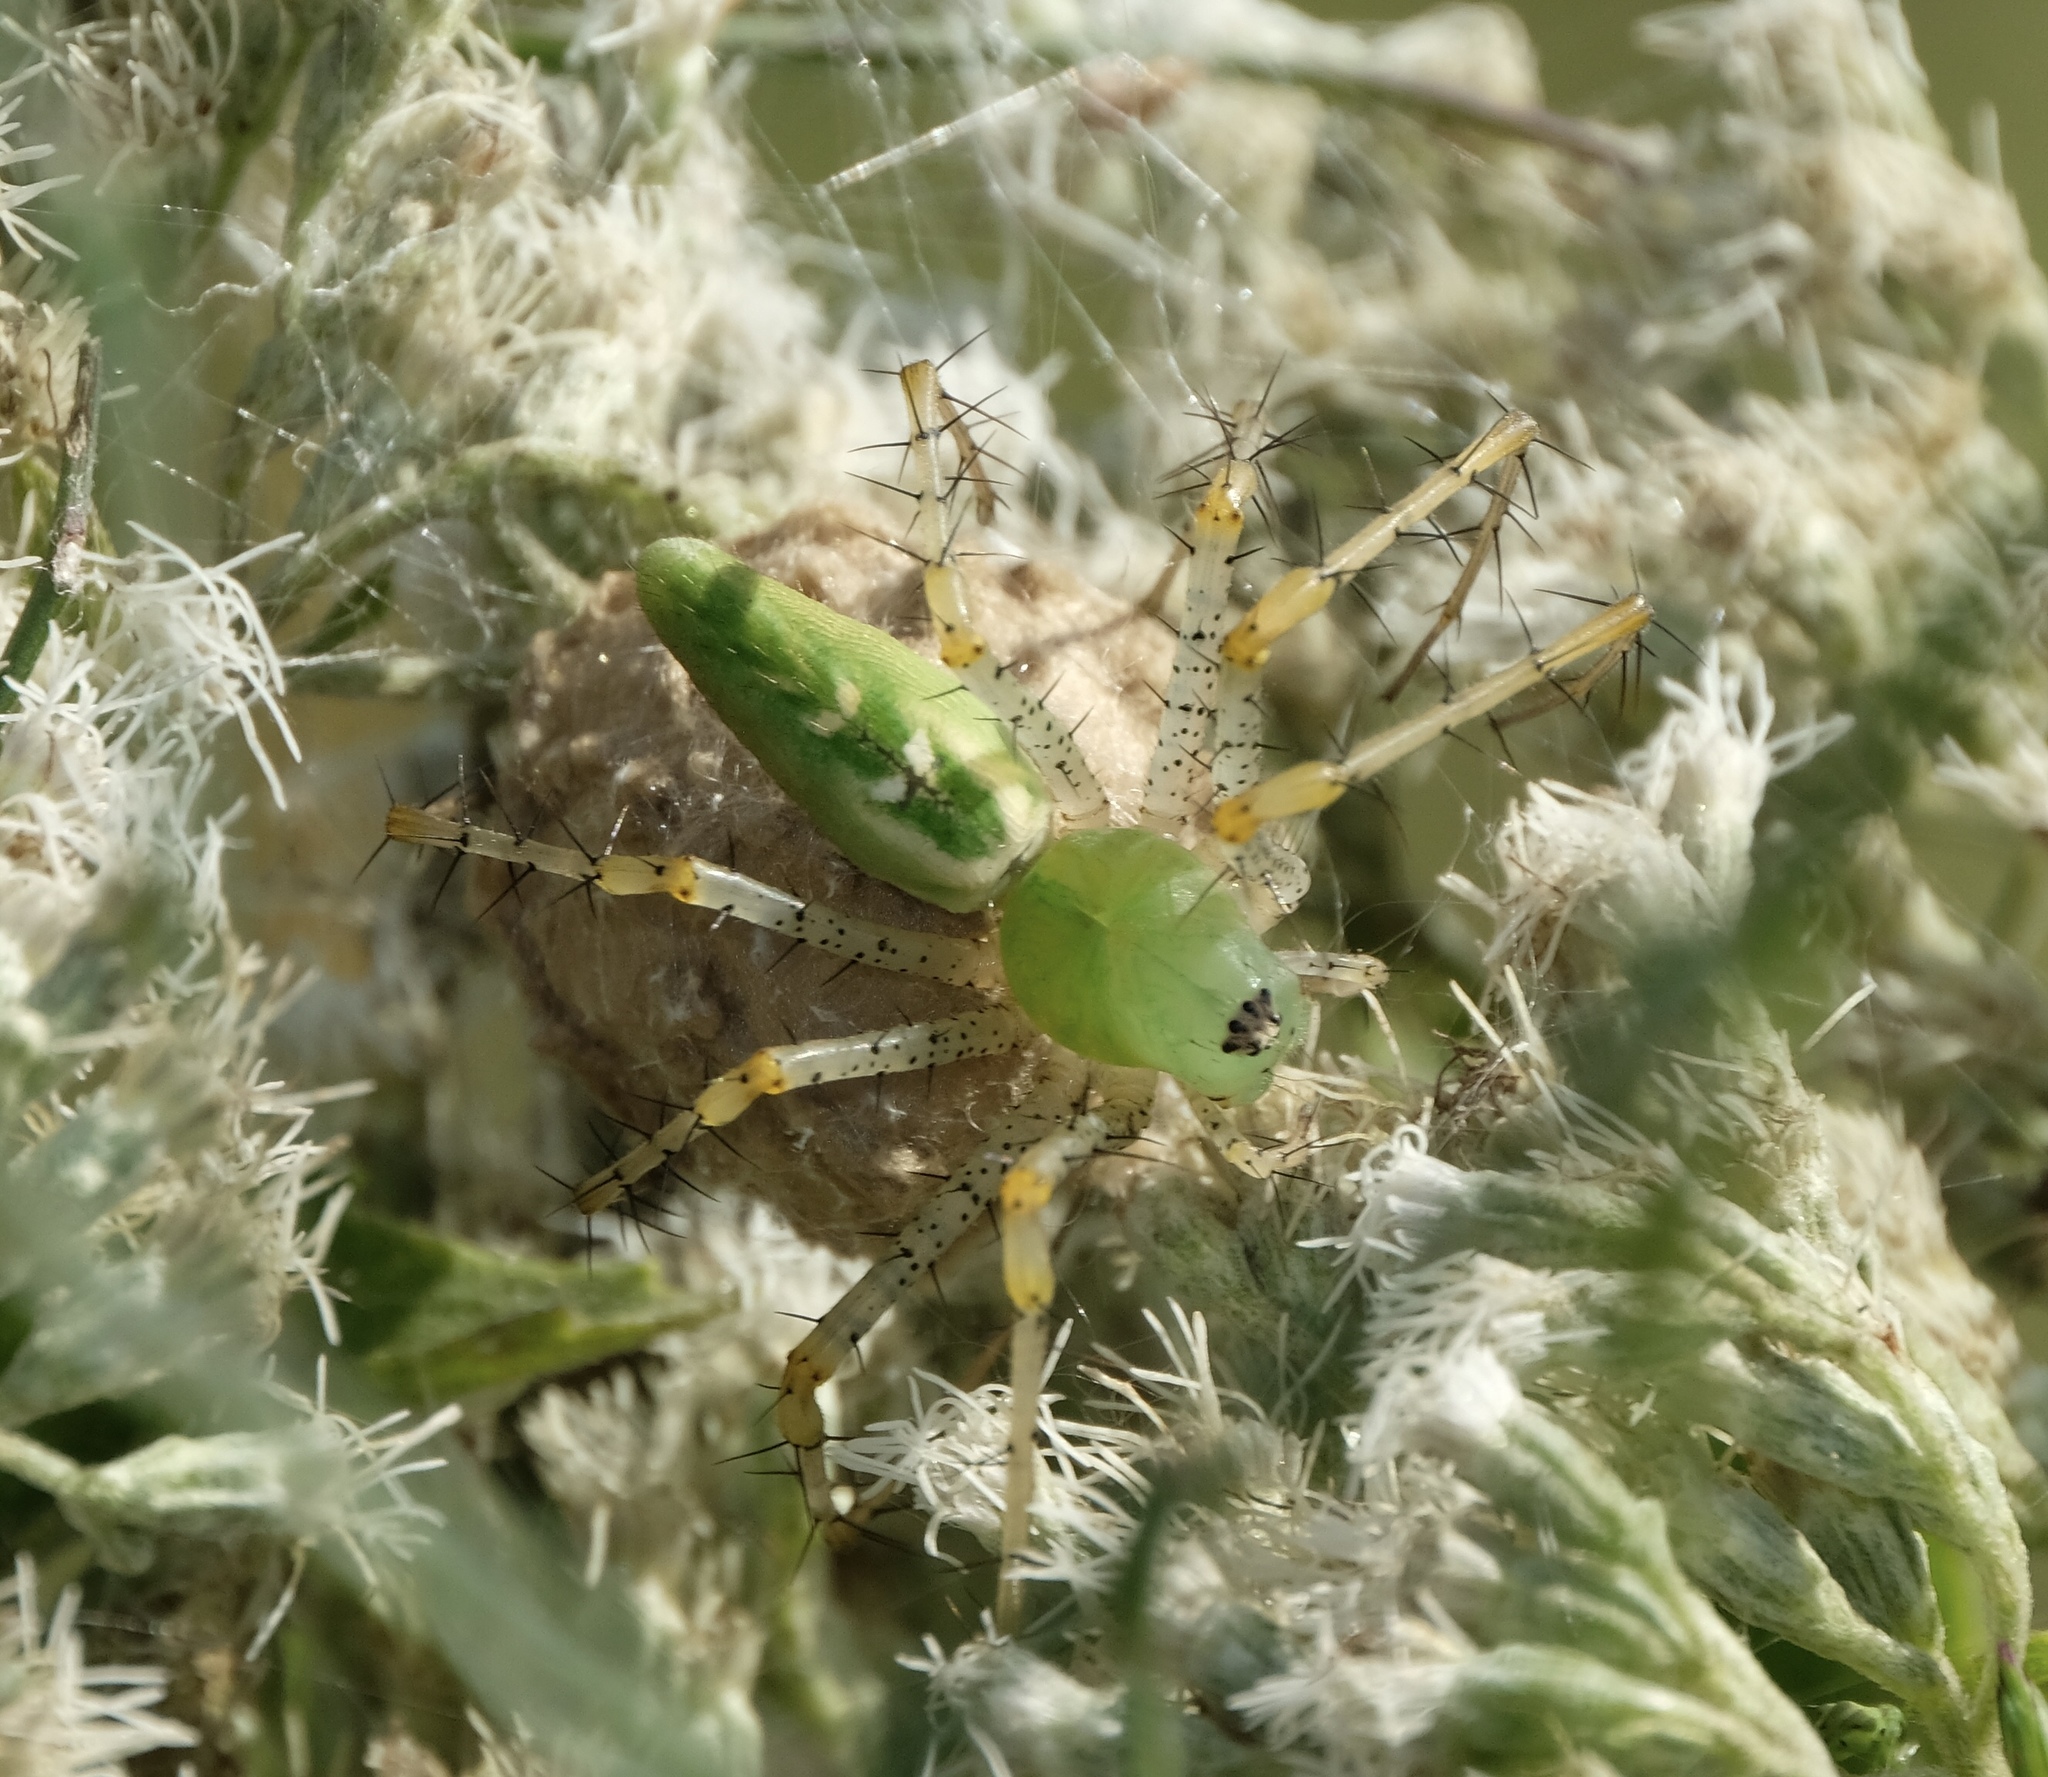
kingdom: Animalia
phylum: Arthropoda
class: Arachnida
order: Araneae
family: Oxyopidae
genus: Peucetia
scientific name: Peucetia viridans
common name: Lynx spiders
